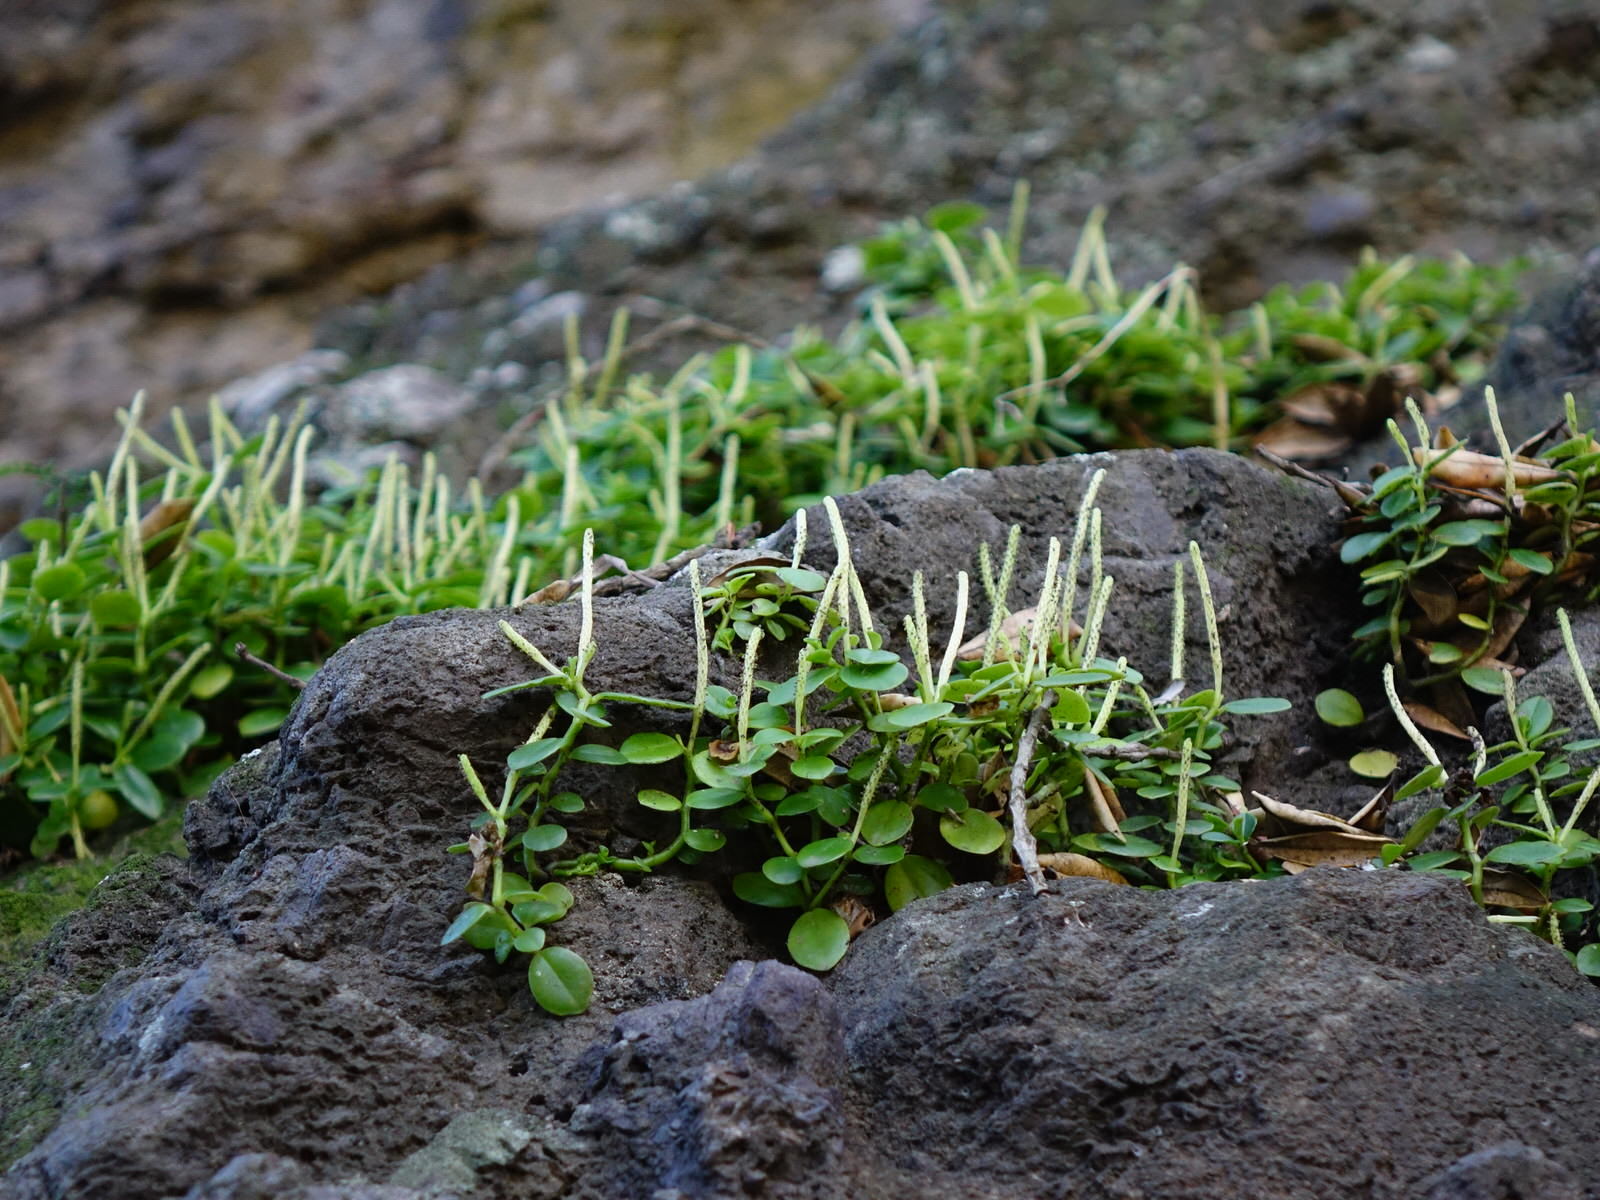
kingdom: Plantae
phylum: Tracheophyta
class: Magnoliopsida
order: Piperales
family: Piperaceae
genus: Peperomia
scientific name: Peperomia urvilleana
